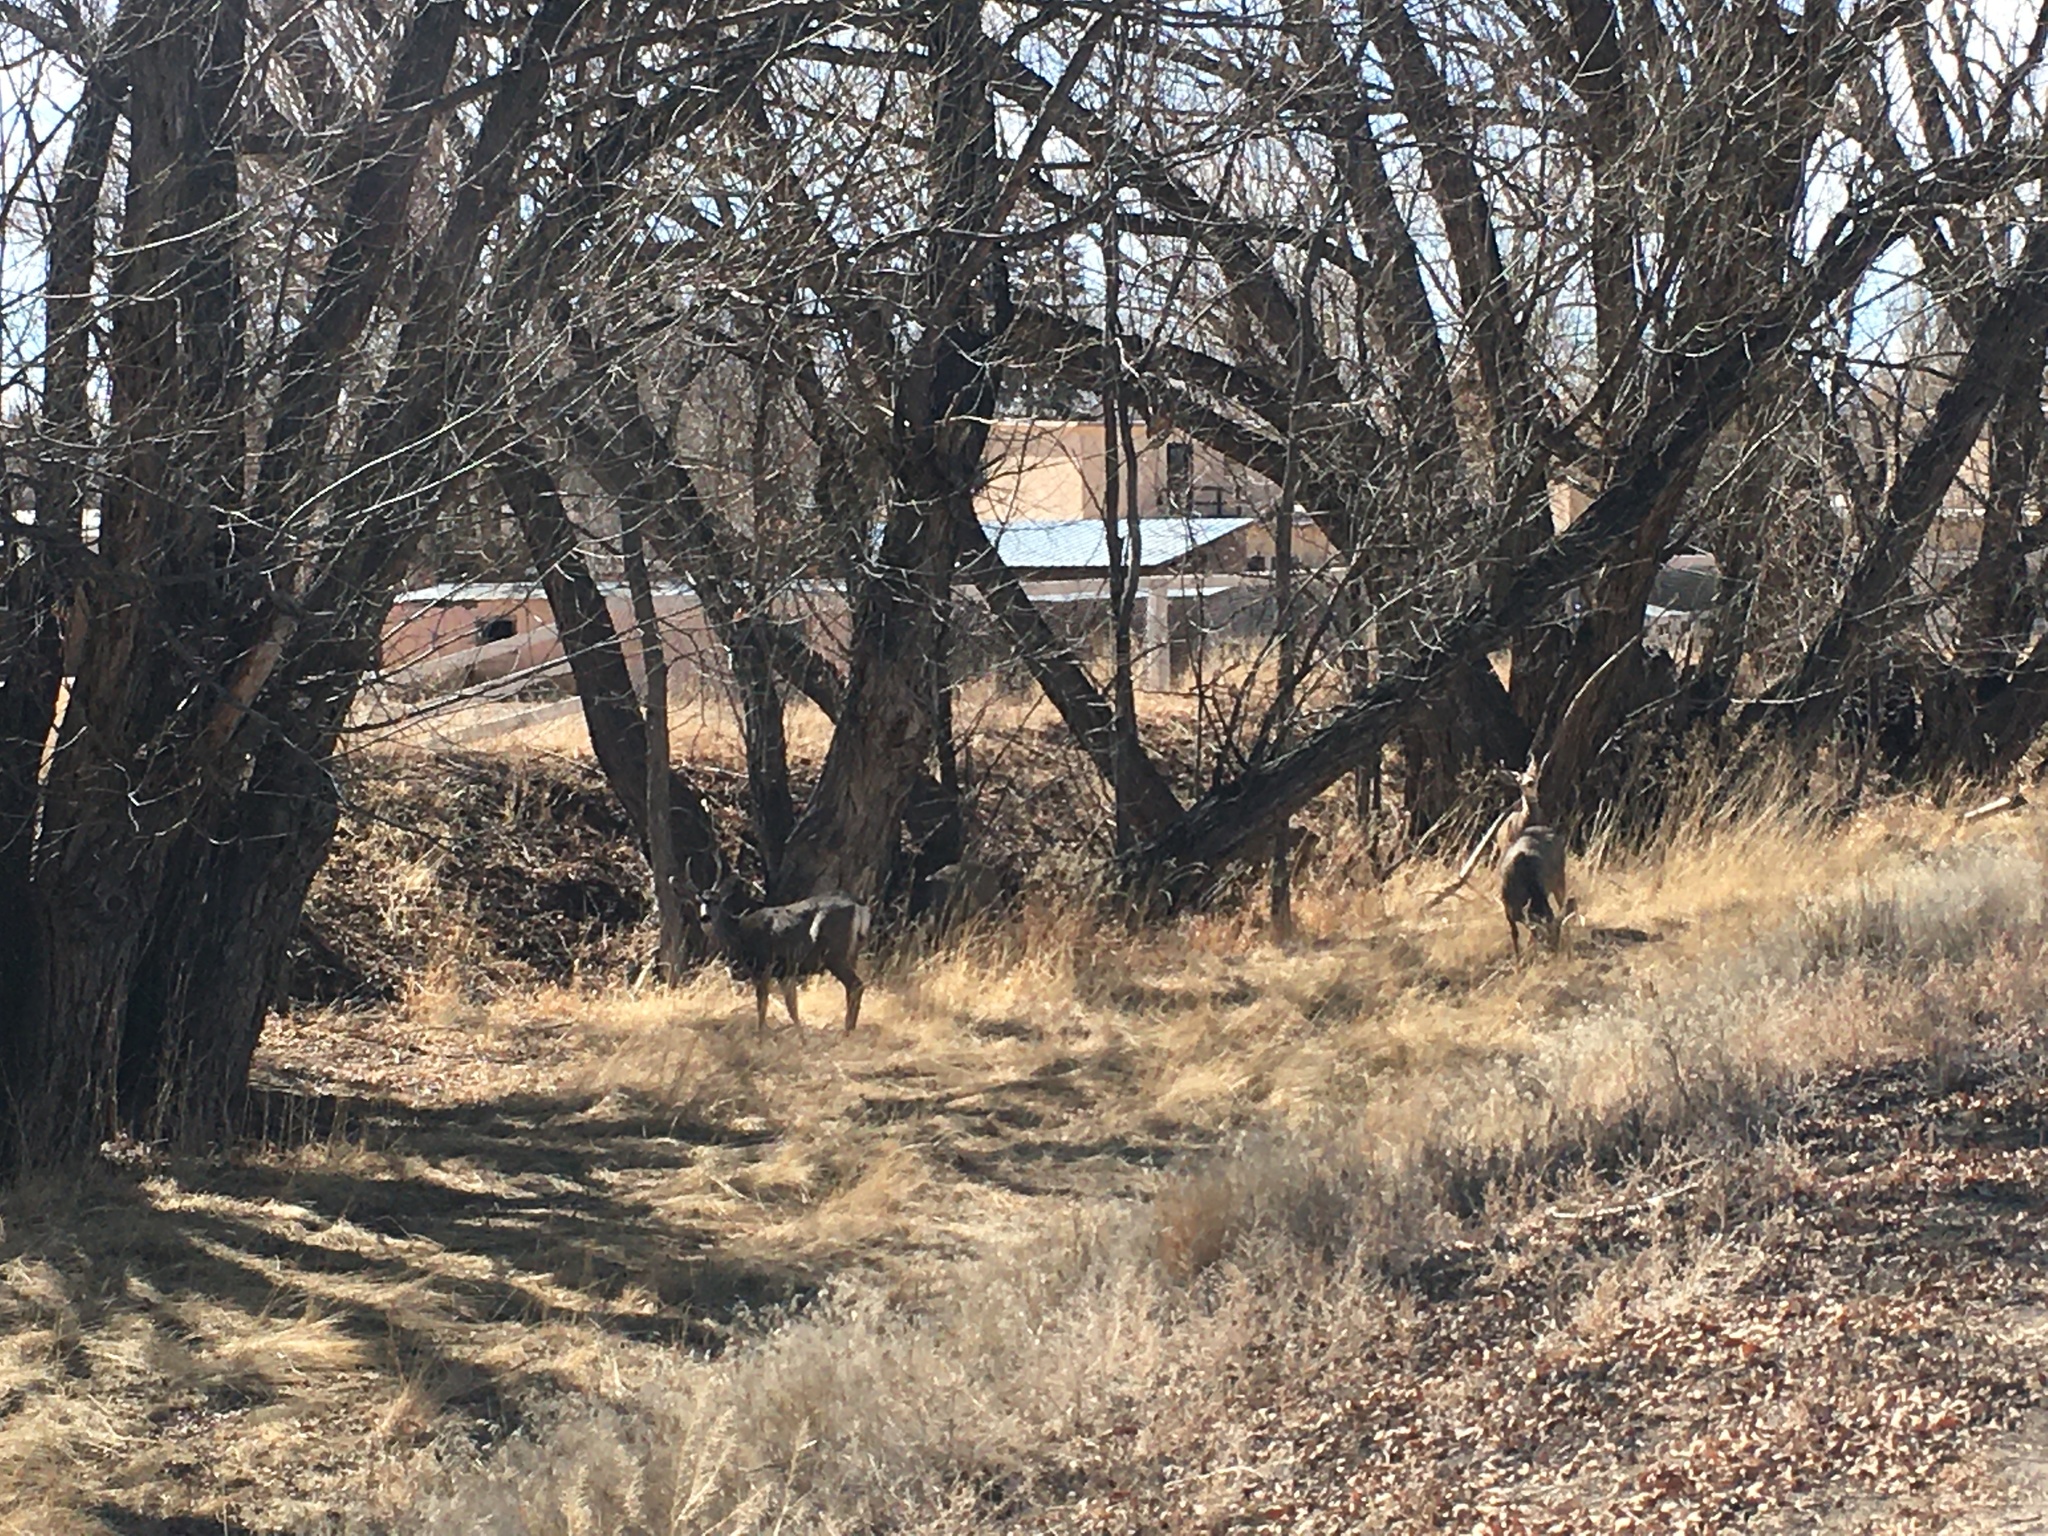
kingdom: Animalia
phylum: Chordata
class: Mammalia
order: Artiodactyla
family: Cervidae
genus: Odocoileus
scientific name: Odocoileus hemionus
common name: Mule deer
